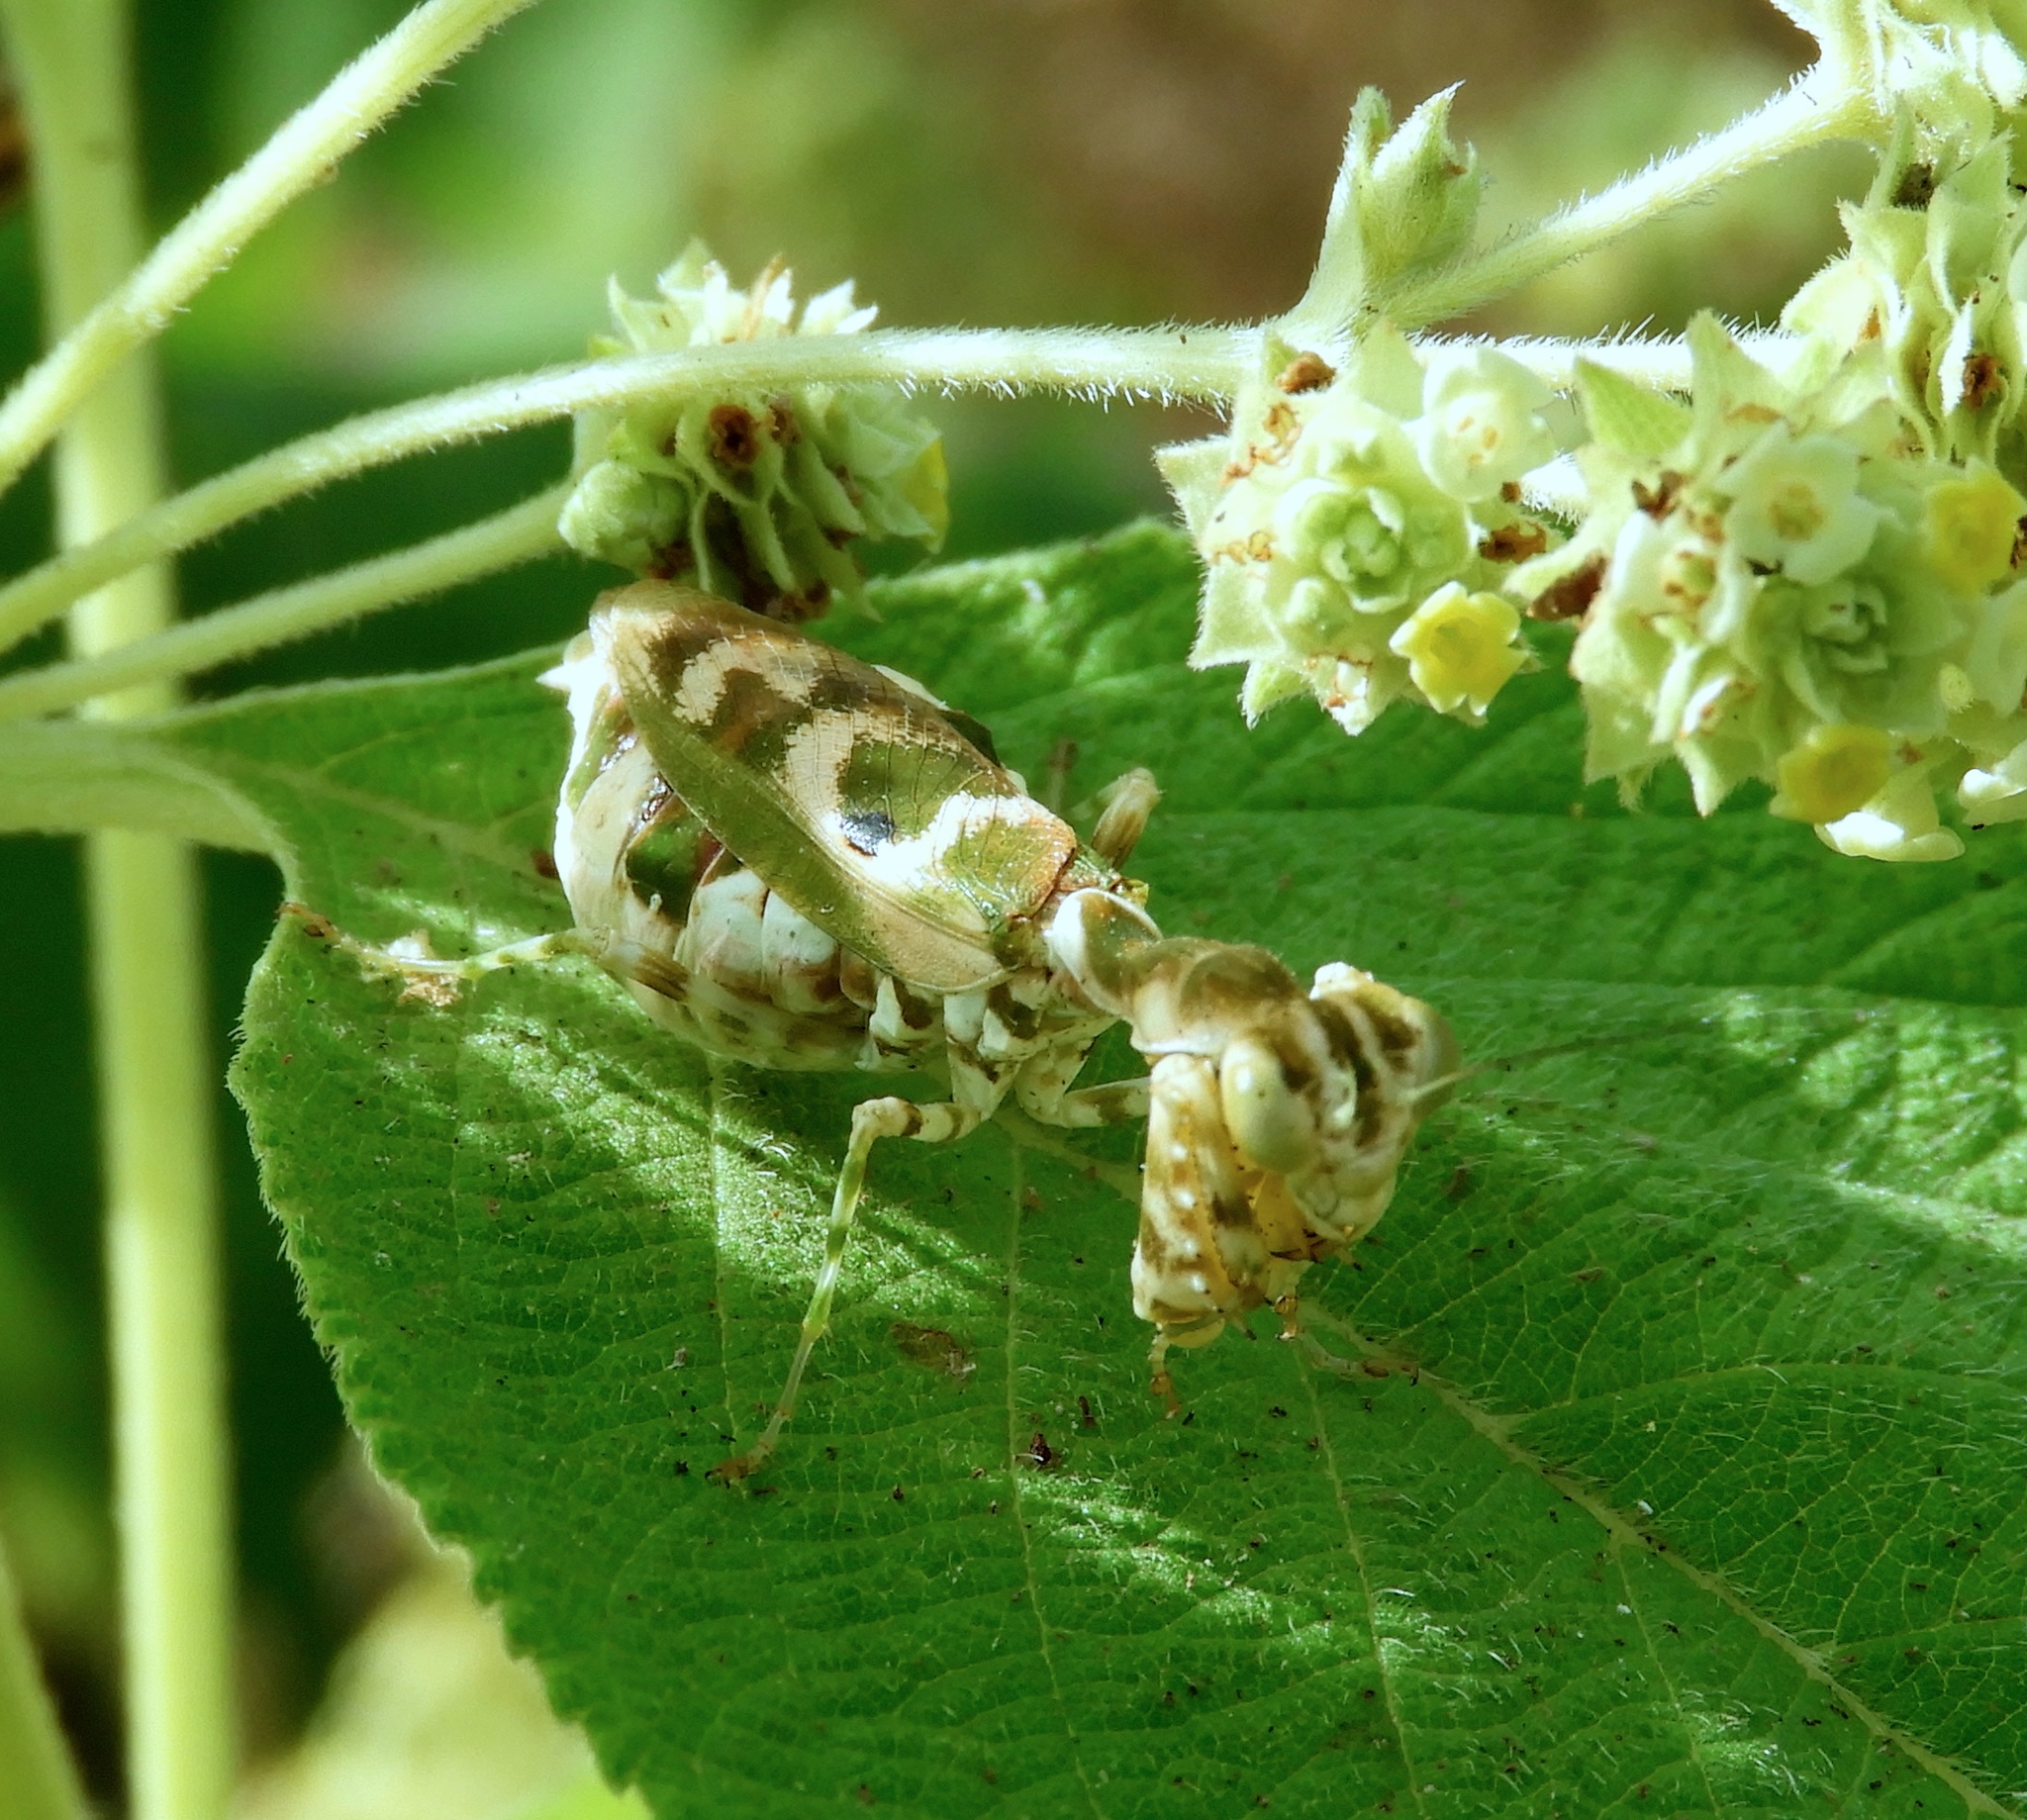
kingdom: Animalia
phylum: Arthropoda
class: Insecta
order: Mantodea
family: Acanthopidae
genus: Acontista
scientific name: Acontista
